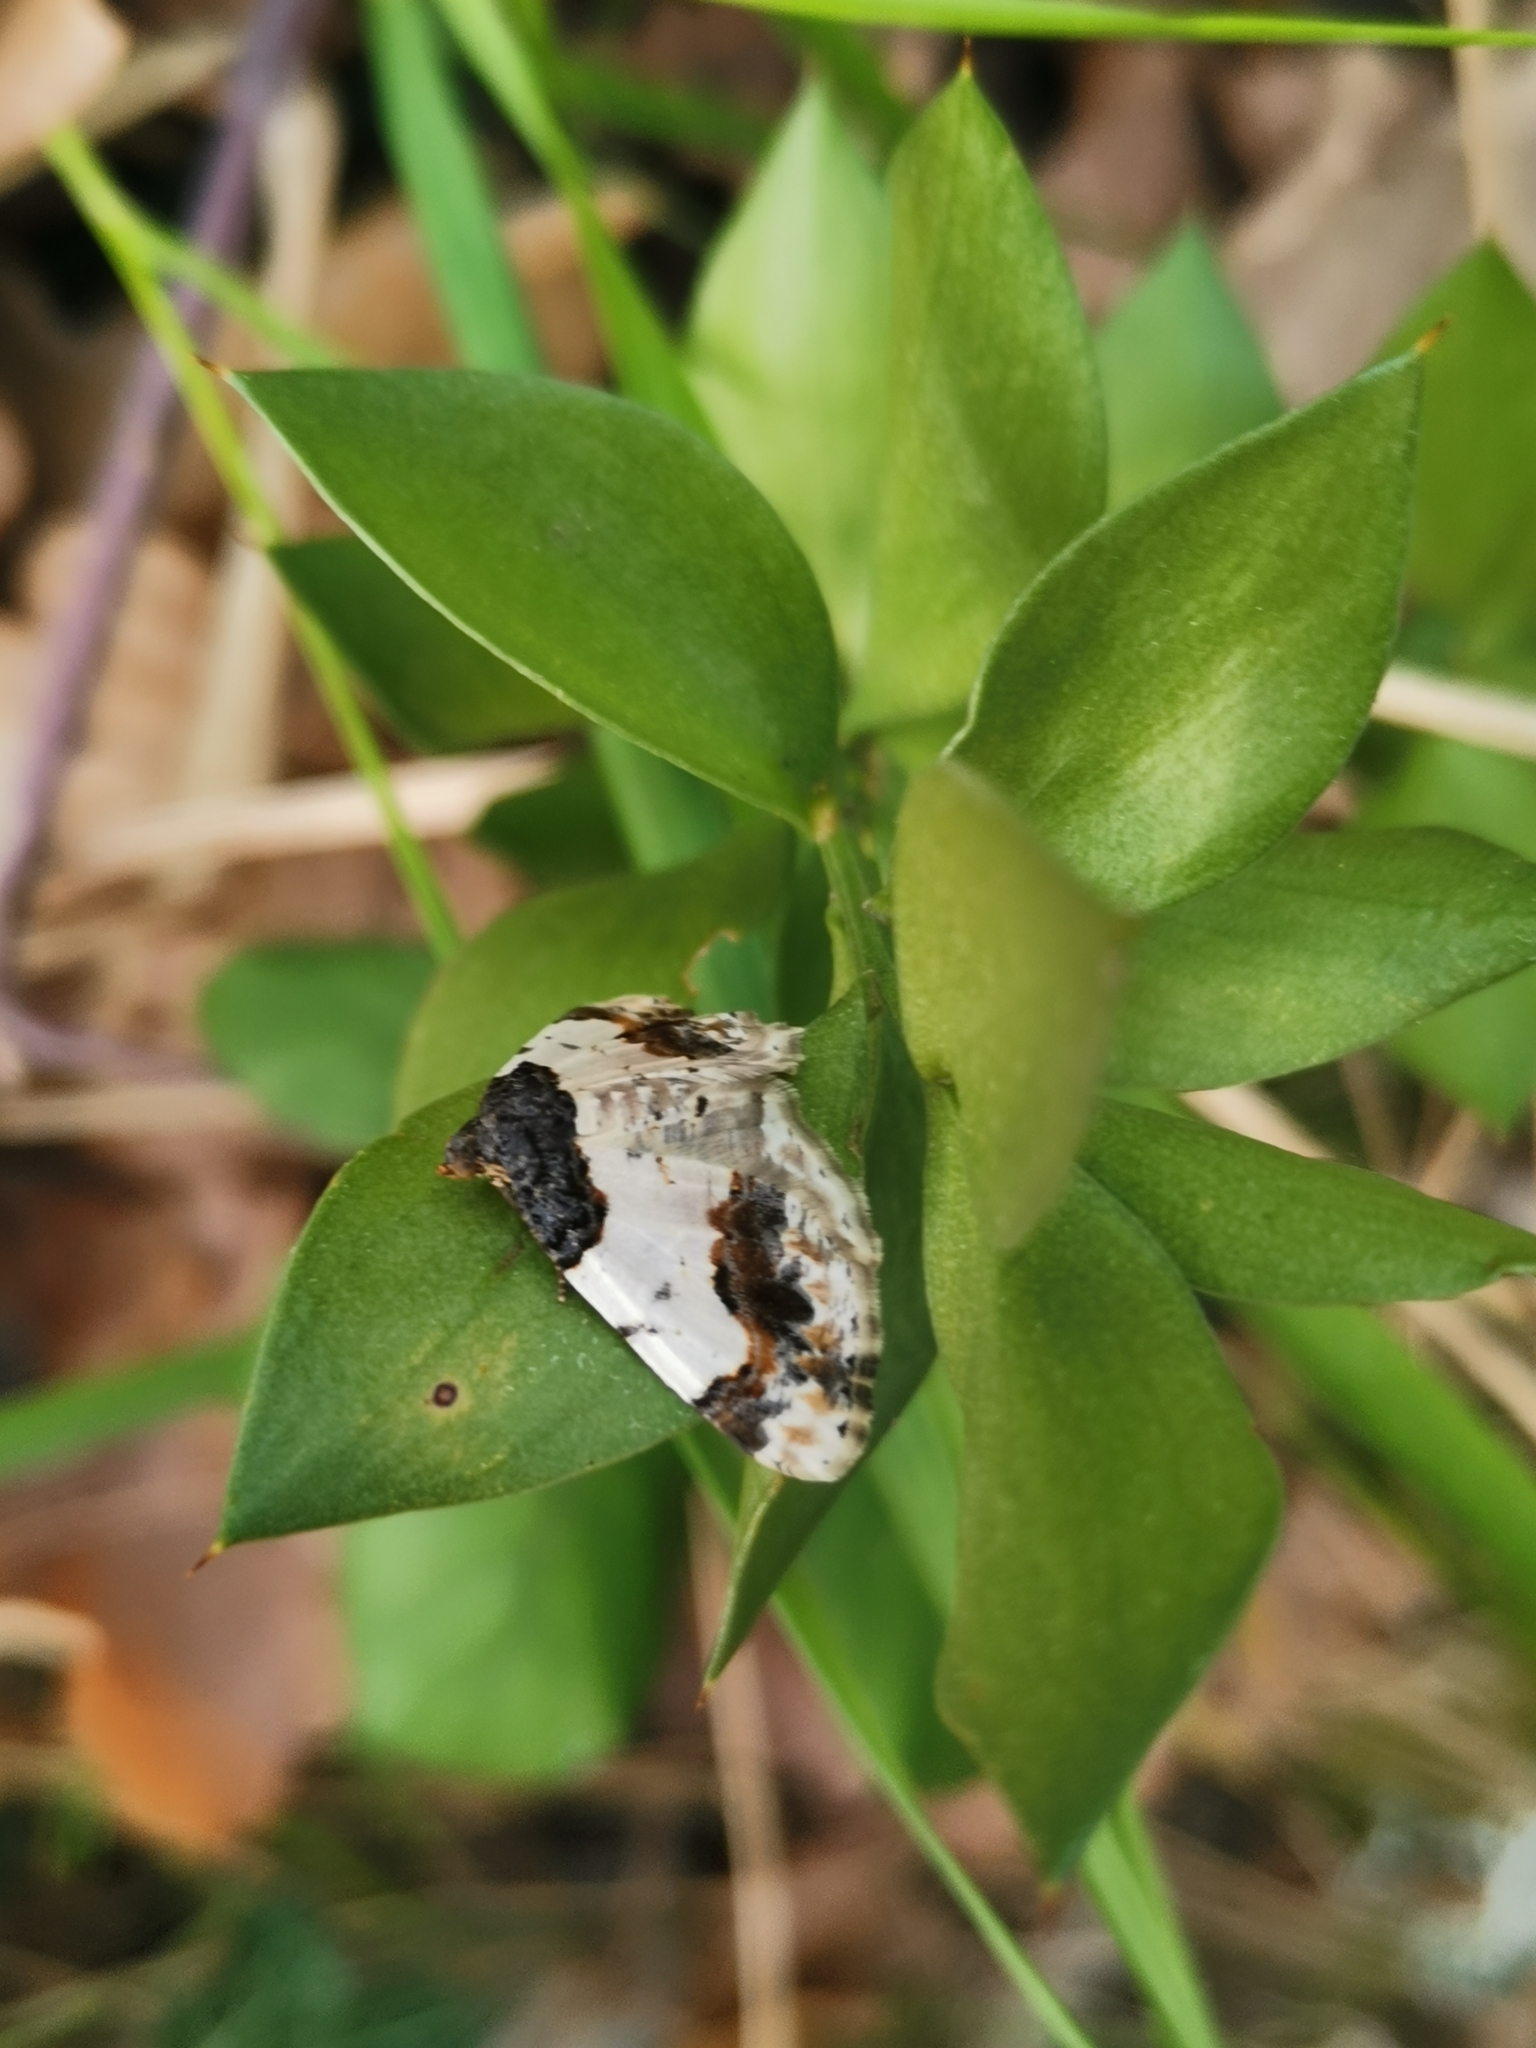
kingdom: Animalia
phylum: Arthropoda
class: Insecta
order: Lepidoptera
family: Geometridae
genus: Ligdia
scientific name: Ligdia adustata
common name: Scorched carpet
